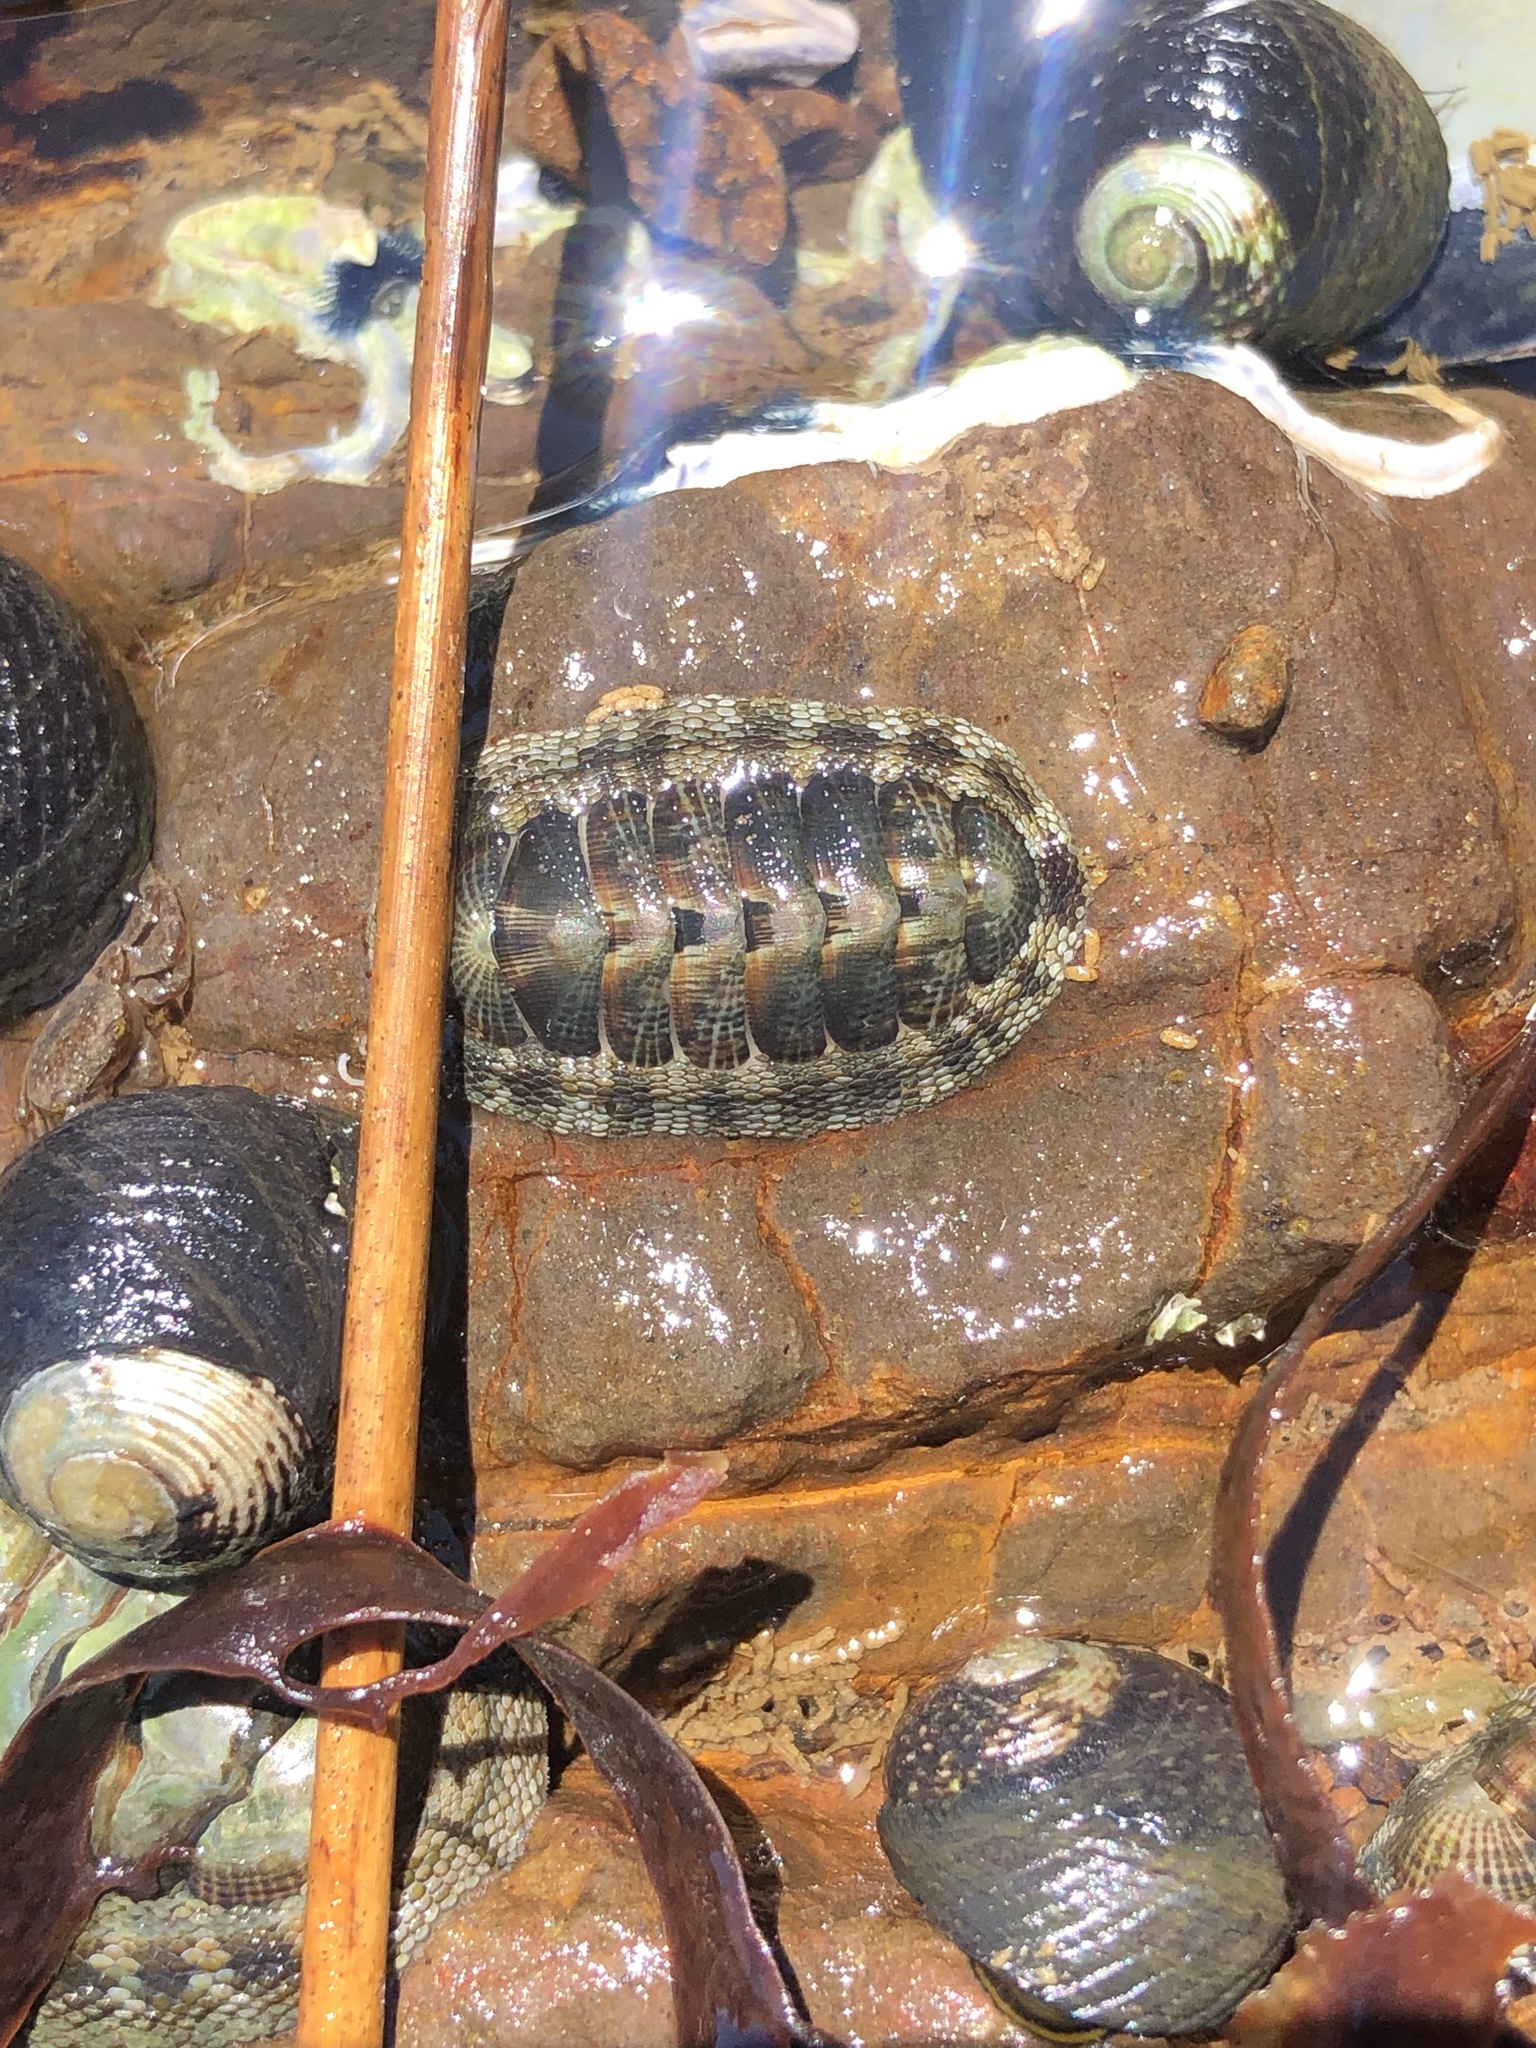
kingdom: Animalia
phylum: Mollusca
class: Polyplacophora
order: Chitonida
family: Chitonidae
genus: Sypharochiton
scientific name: Sypharochiton pelliserpentis
